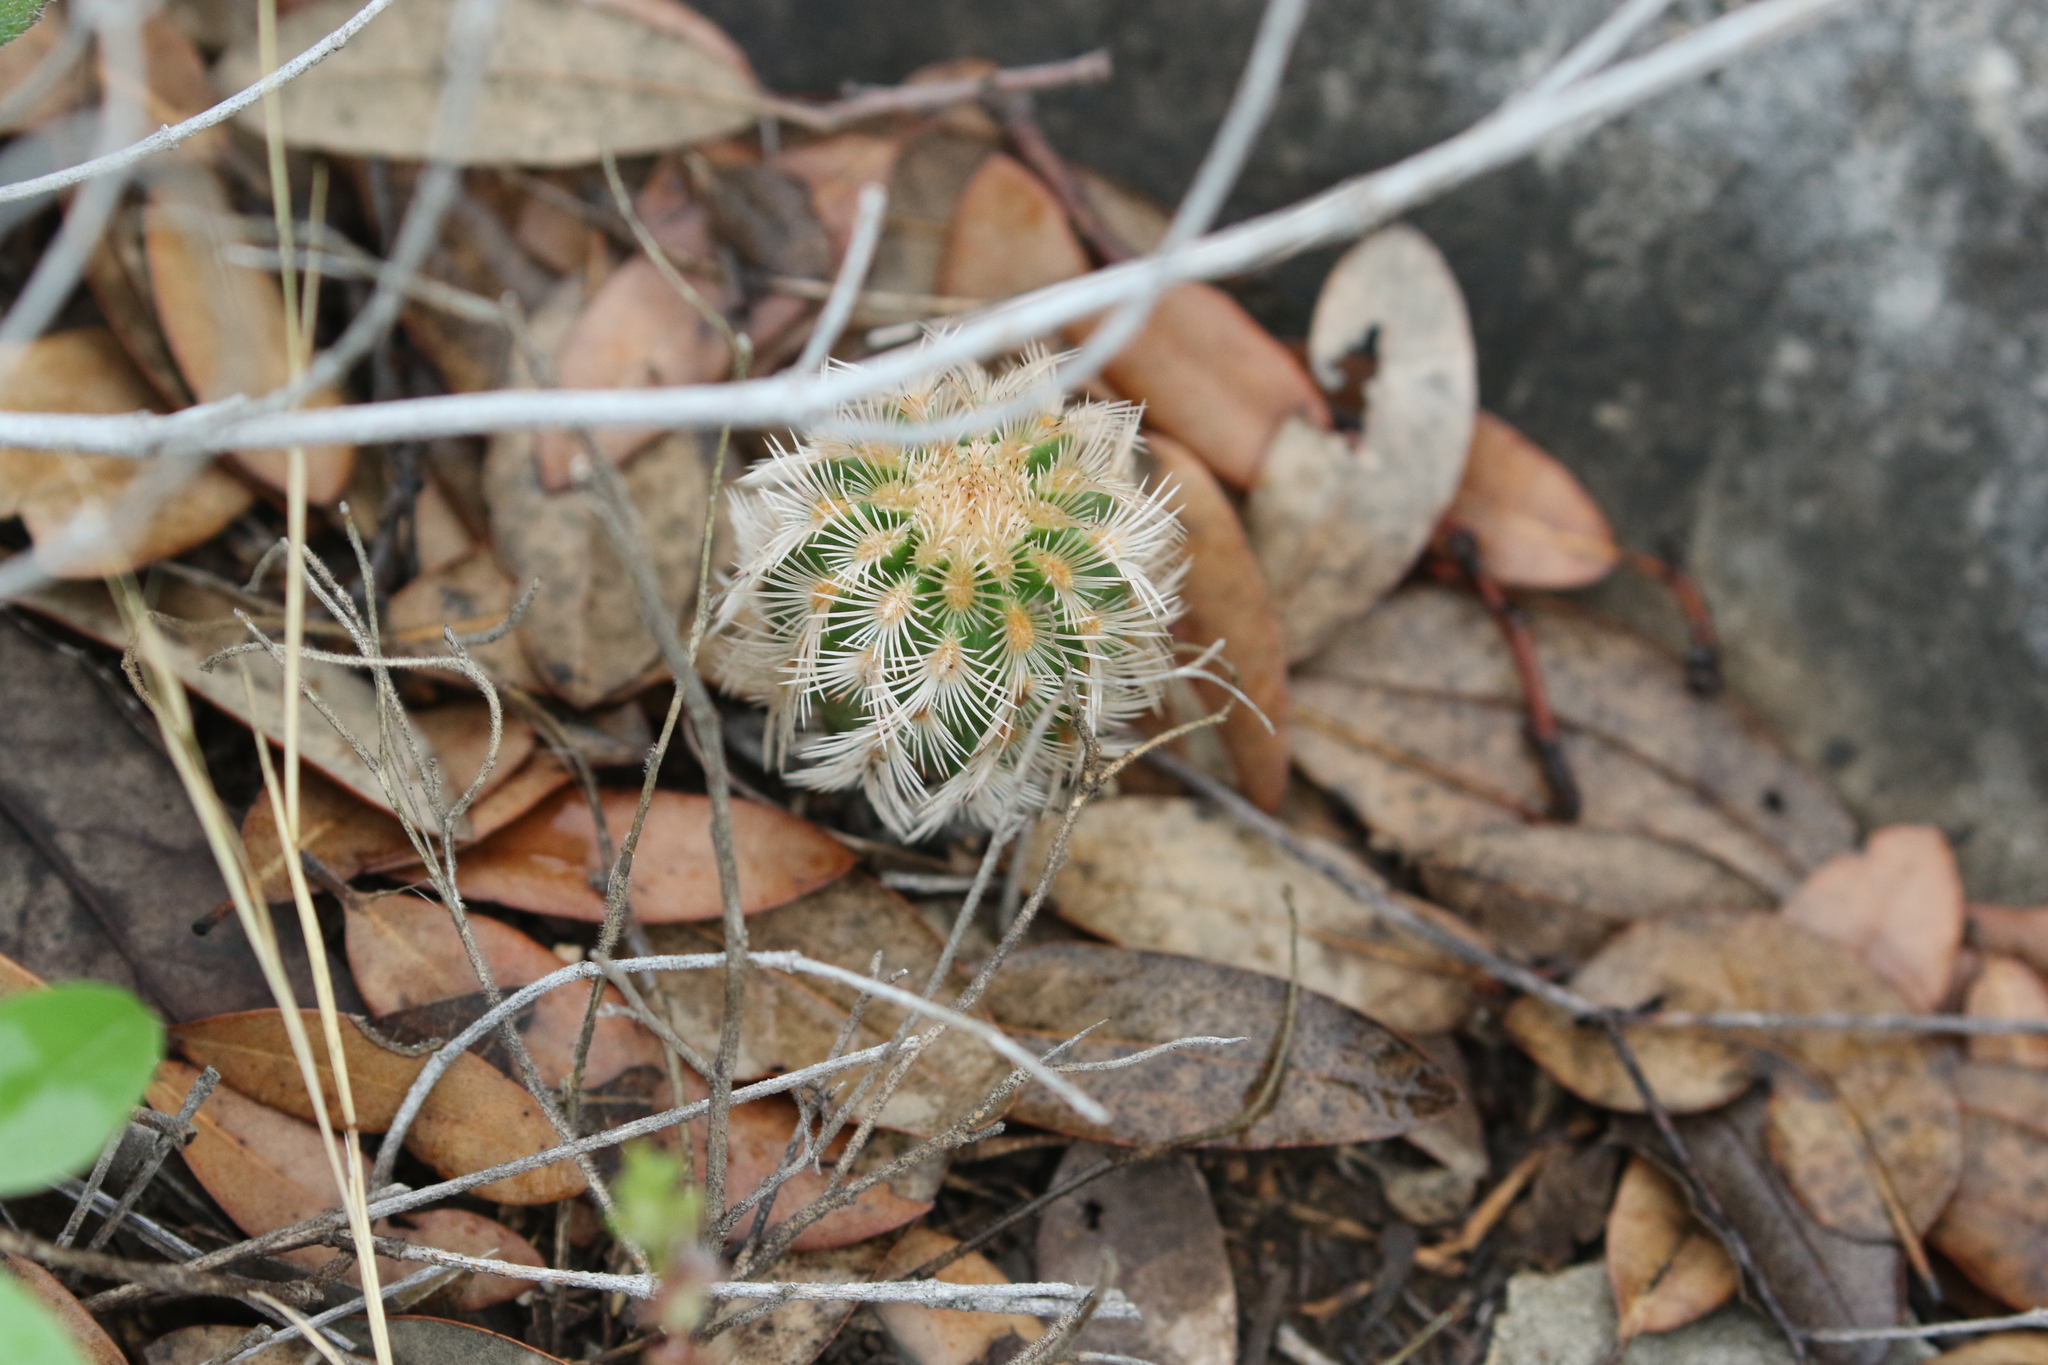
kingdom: Plantae
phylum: Tracheophyta
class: Magnoliopsida
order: Caryophyllales
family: Cactaceae
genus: Echinocereus
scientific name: Echinocereus reichenbachii
